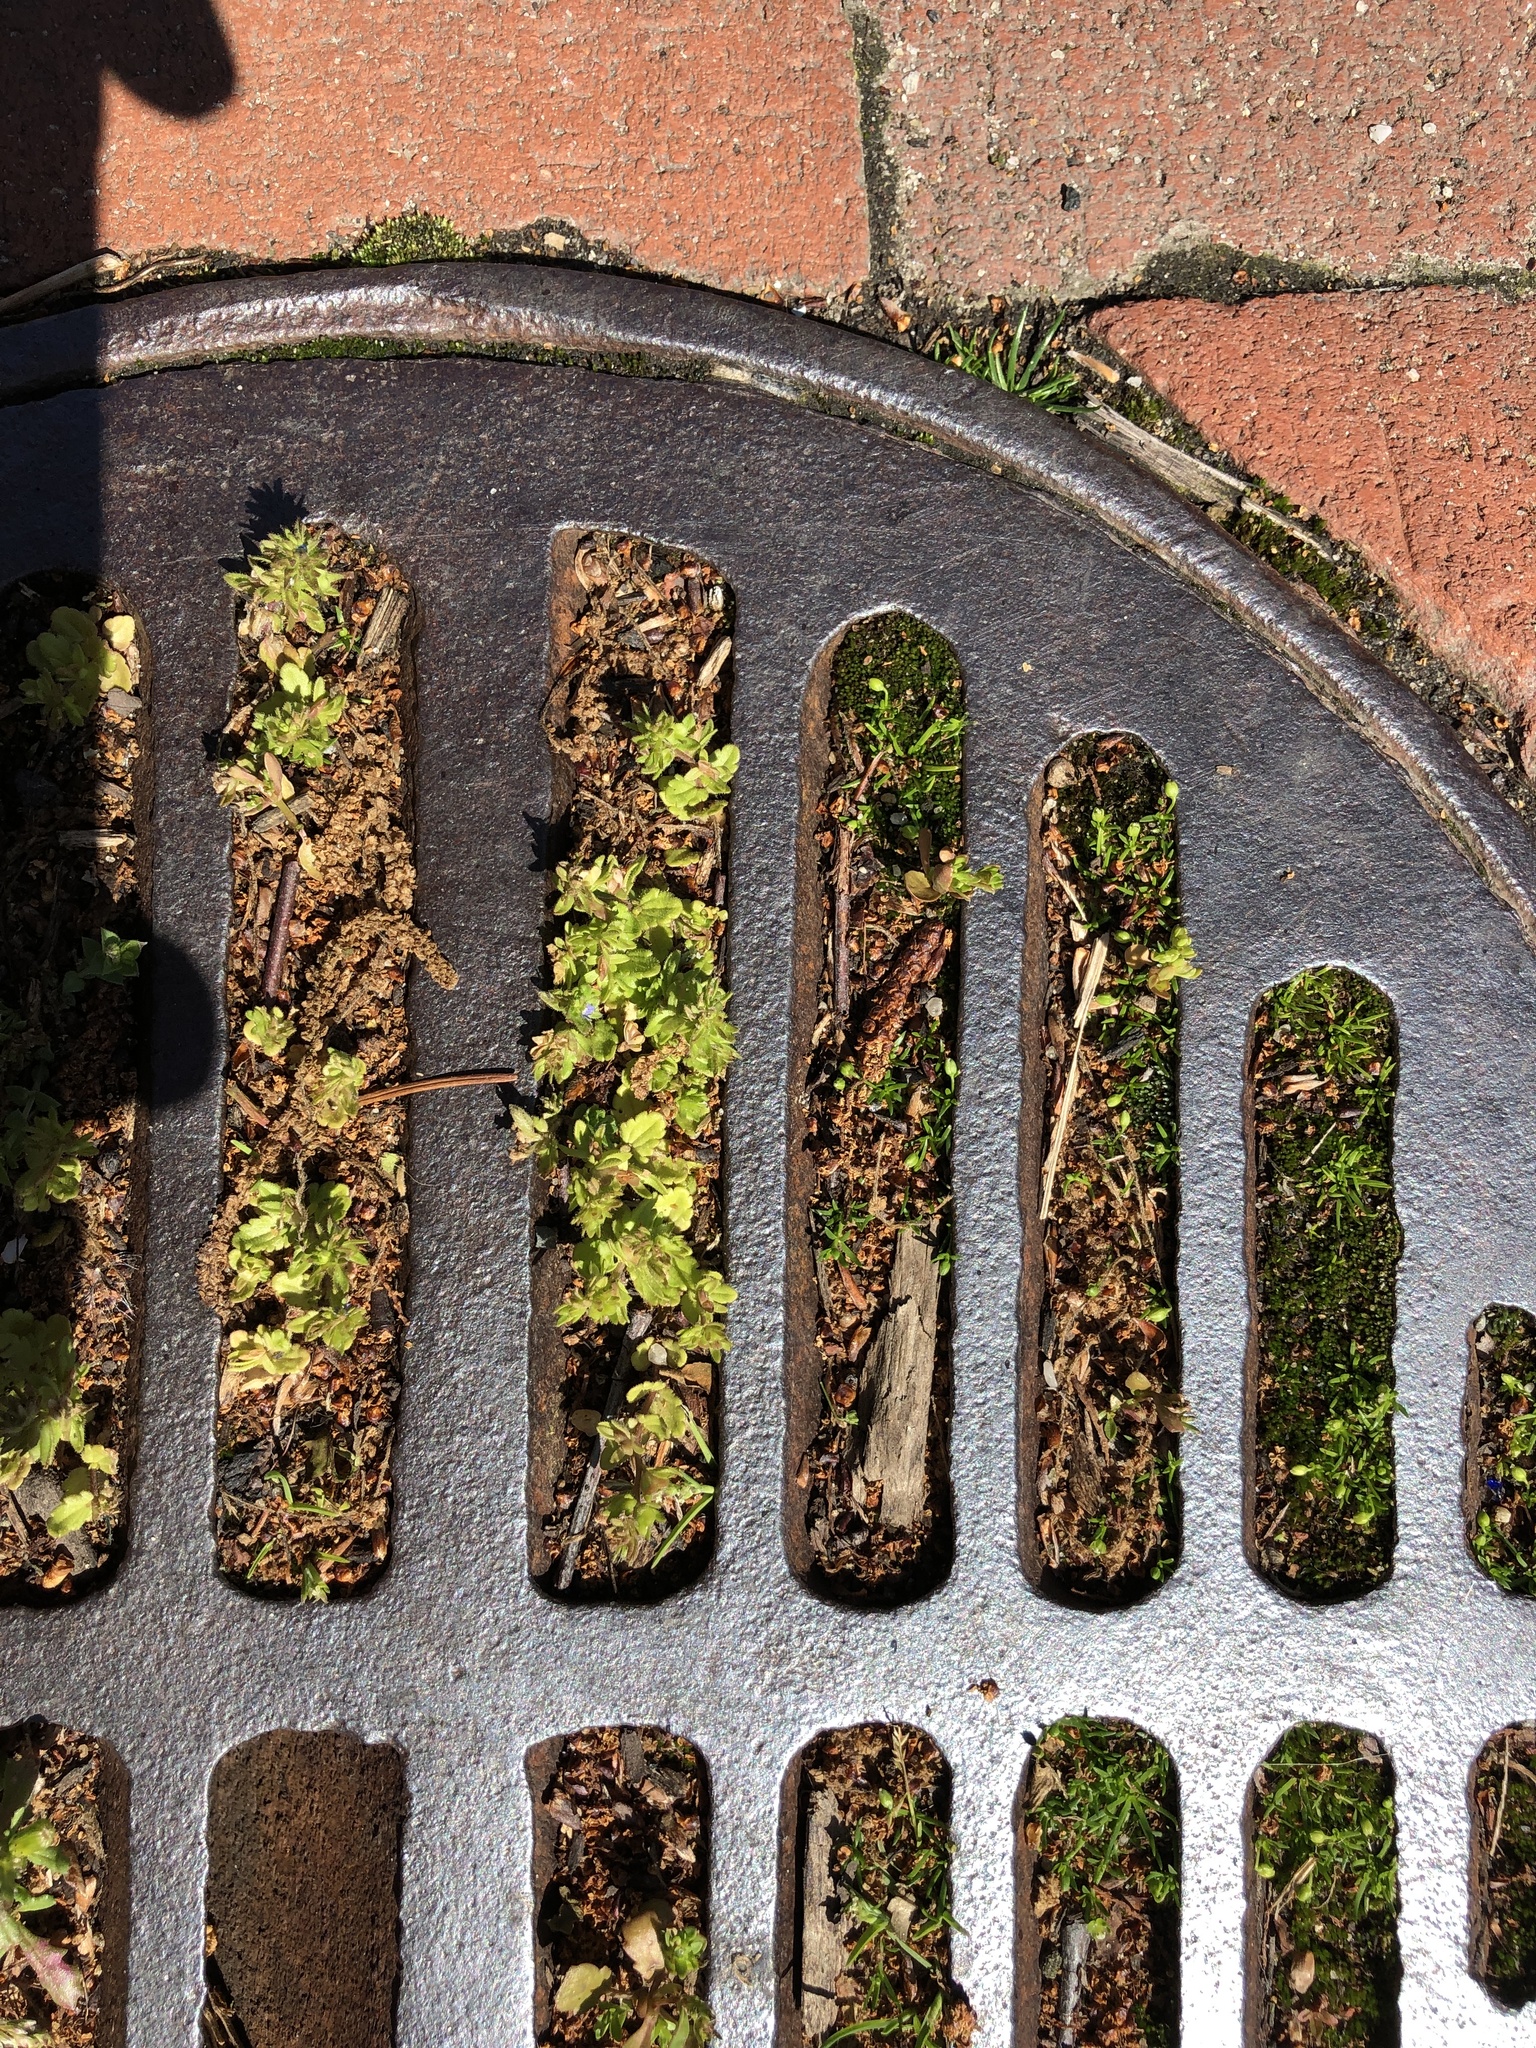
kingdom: Plantae
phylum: Tracheophyta
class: Magnoliopsida
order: Lamiales
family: Plantaginaceae
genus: Veronica
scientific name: Veronica arvensis
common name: Corn speedwell
